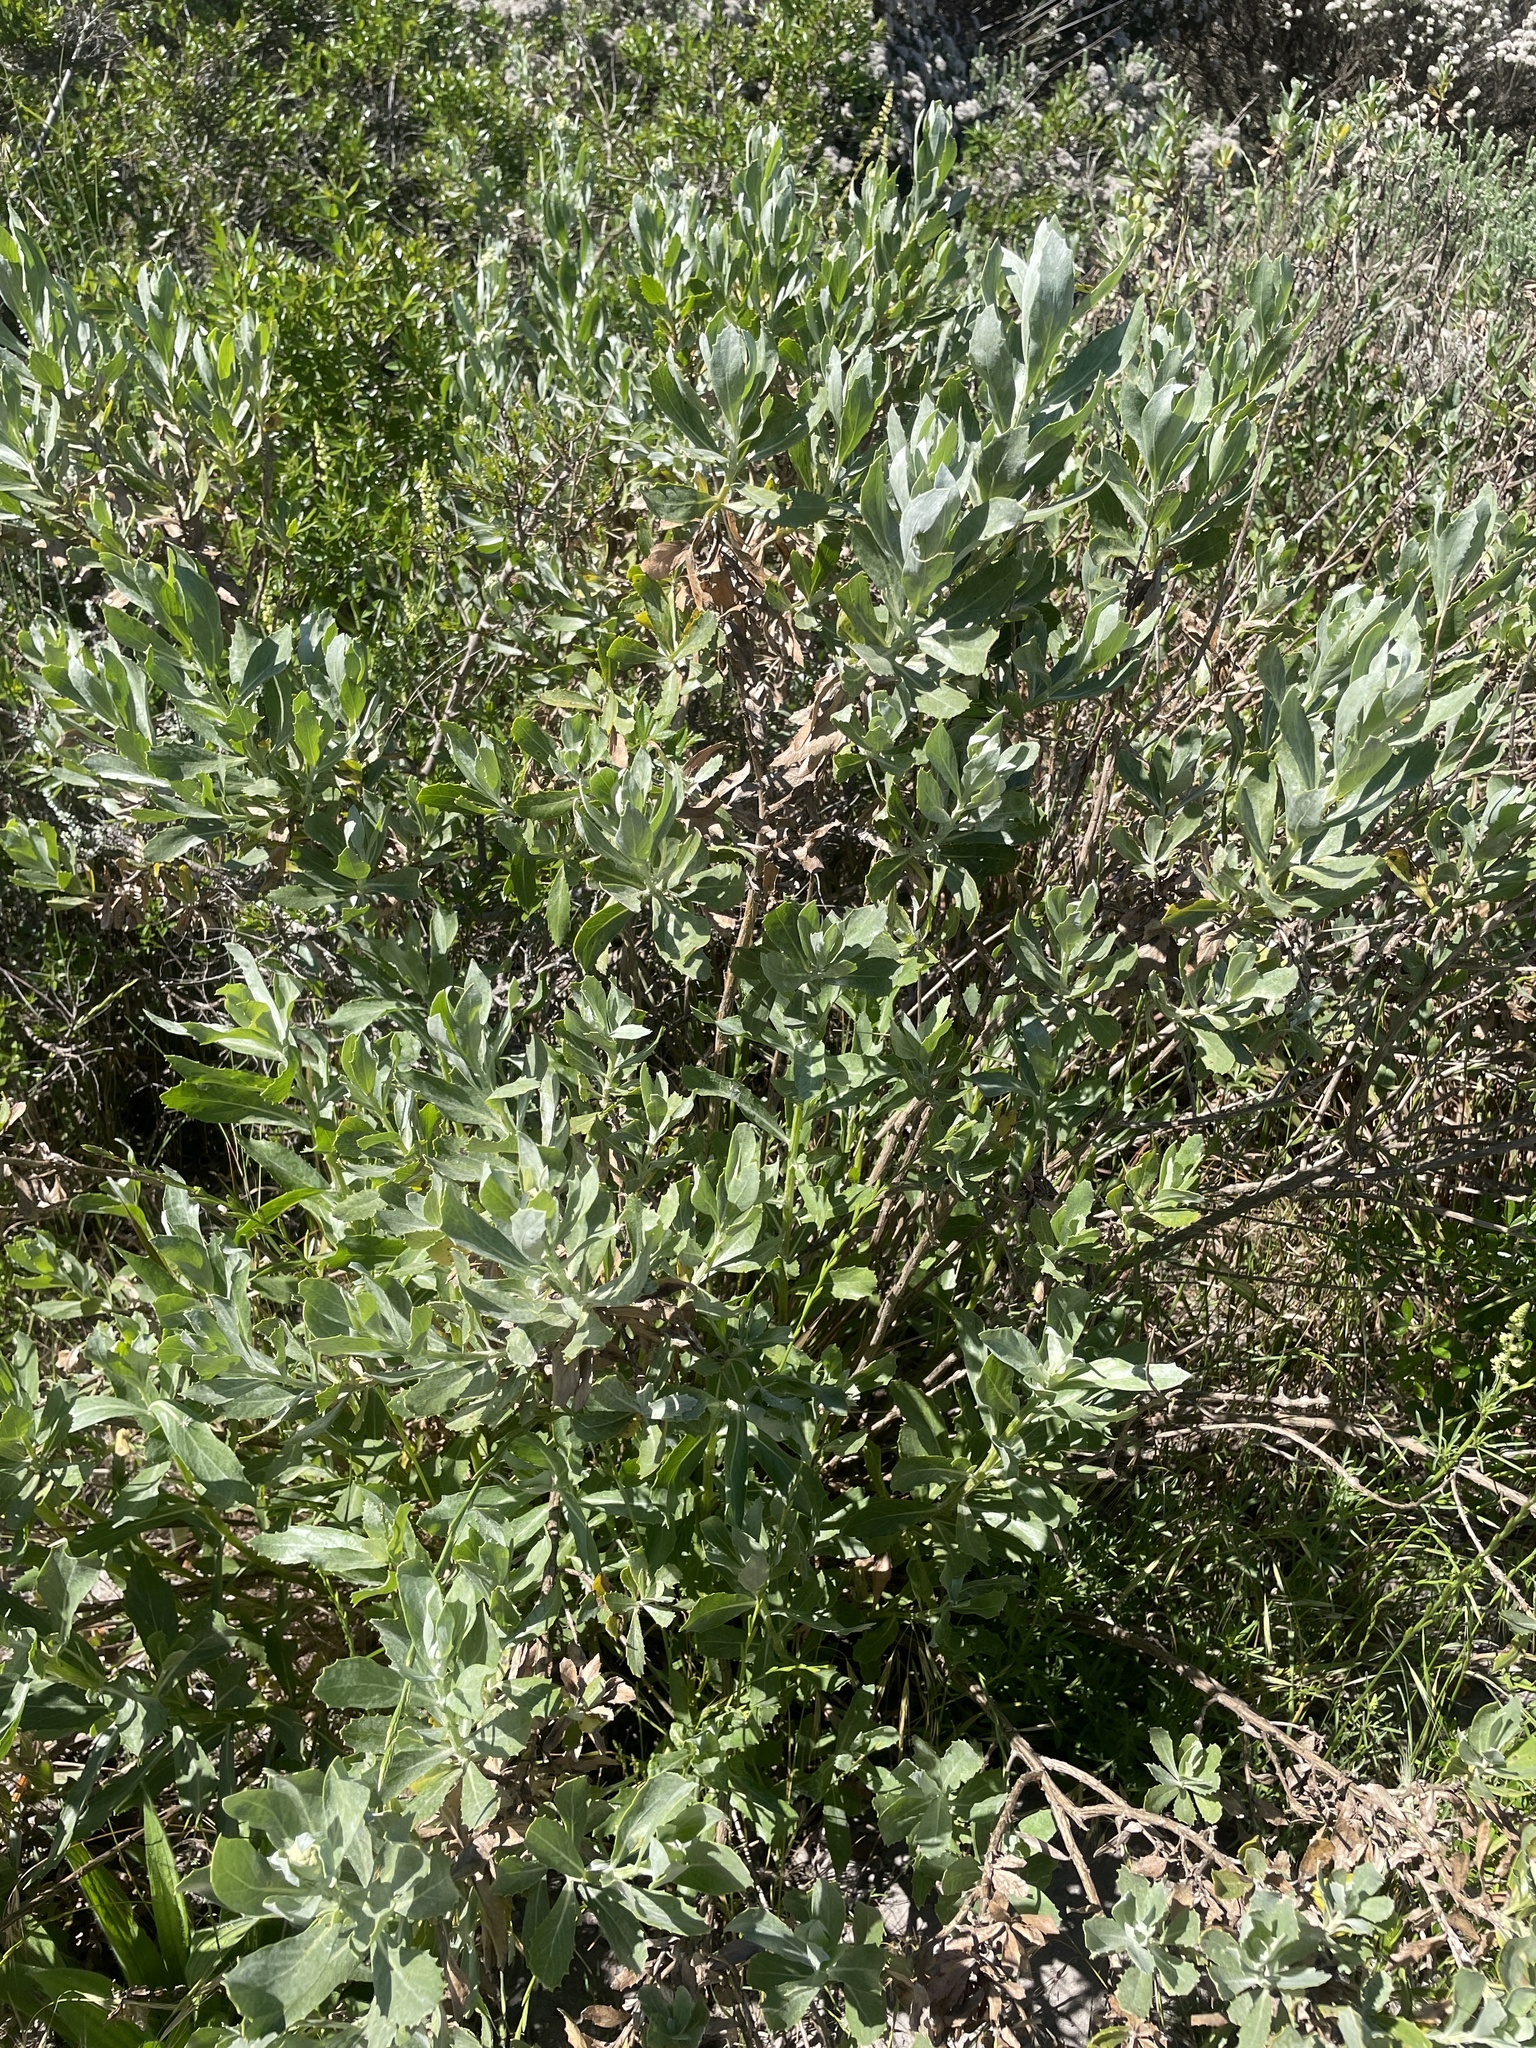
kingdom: Plantae
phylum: Tracheophyta
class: Magnoliopsida
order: Asterales
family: Asteraceae
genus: Senecio
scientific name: Senecio halimifolius
